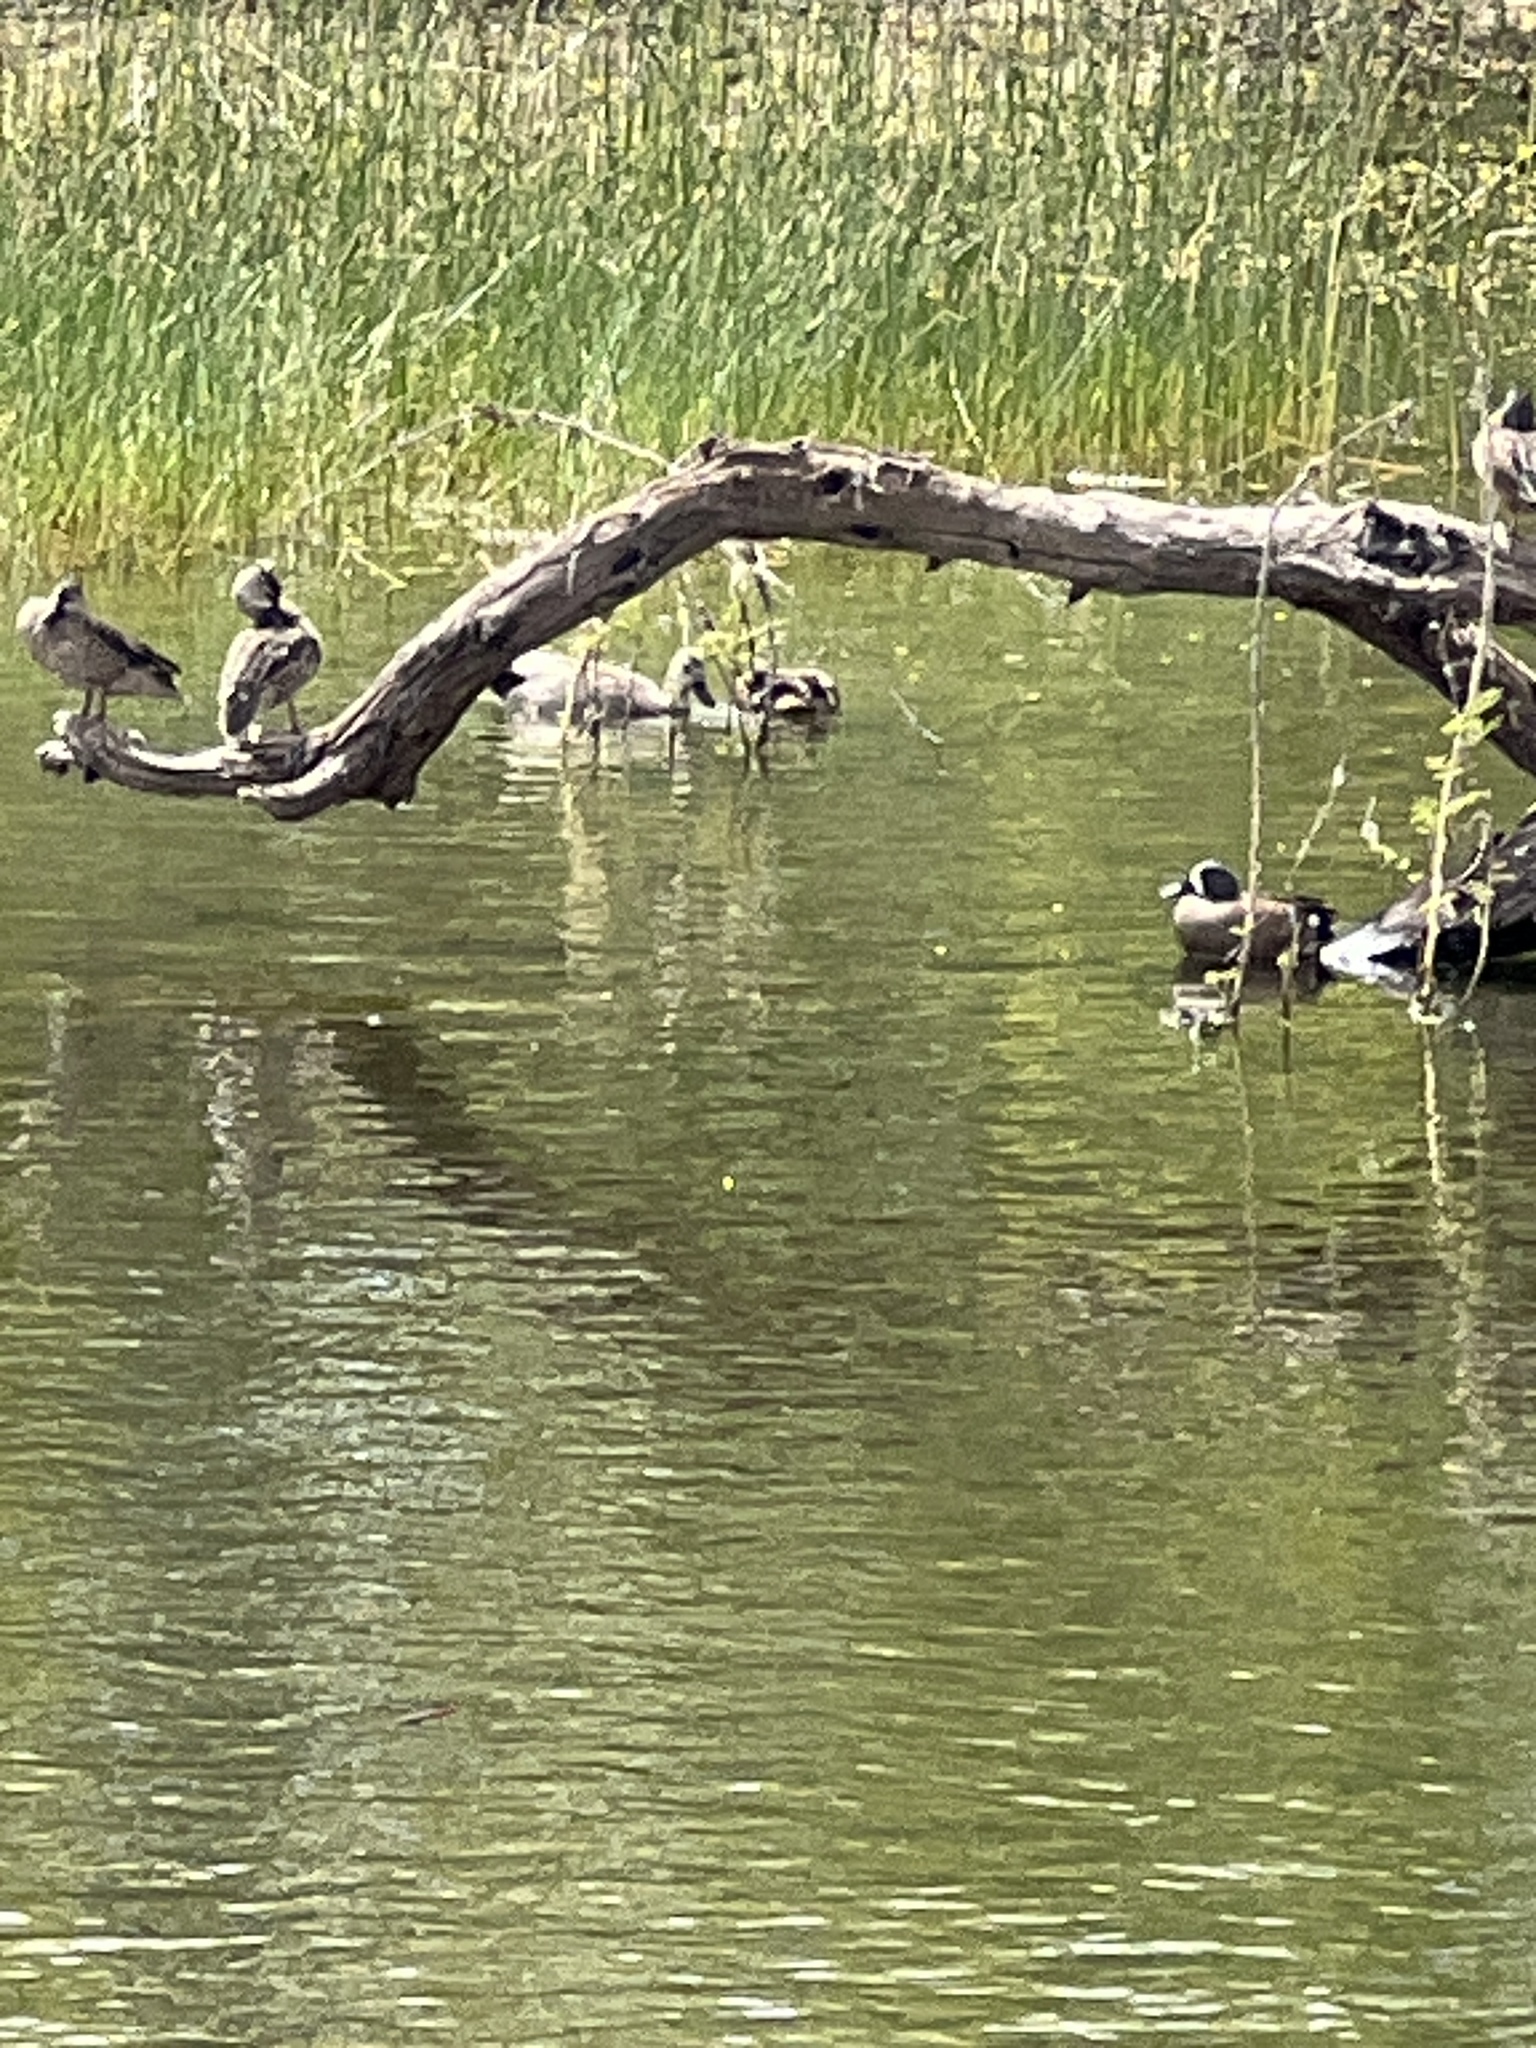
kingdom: Animalia
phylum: Chordata
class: Aves
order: Anseriformes
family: Anatidae
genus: Mareca
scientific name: Mareca strepera
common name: Gadwall
